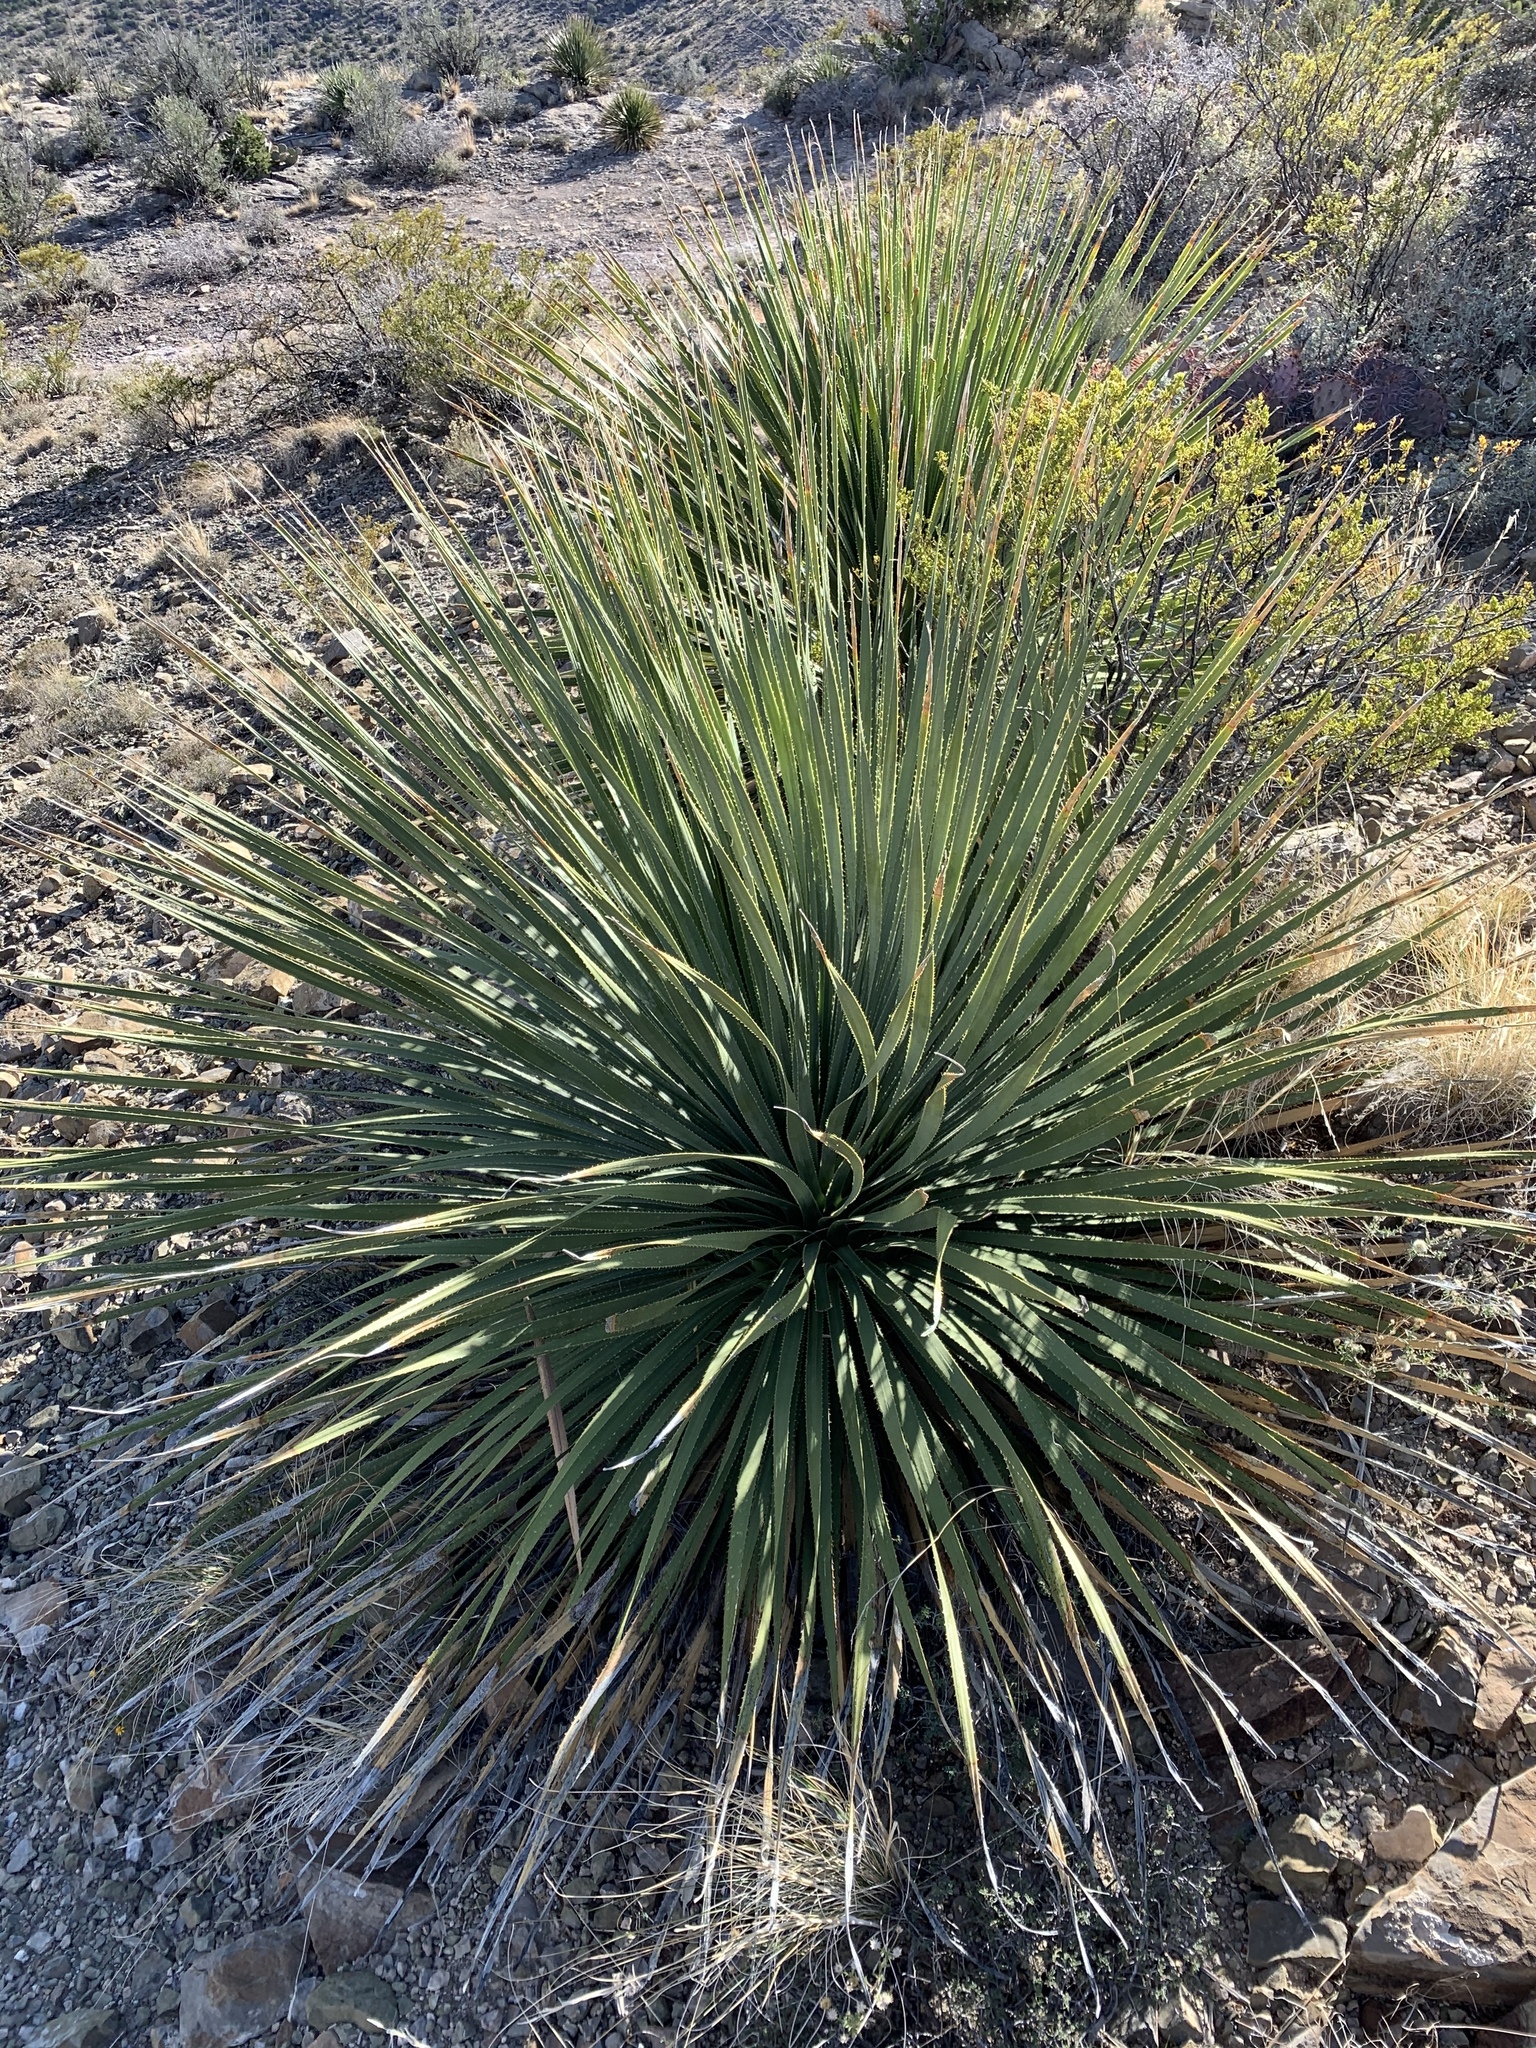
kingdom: Plantae
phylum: Tracheophyta
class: Liliopsida
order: Asparagales
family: Asparagaceae
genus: Dasylirion
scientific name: Dasylirion wheeleri
